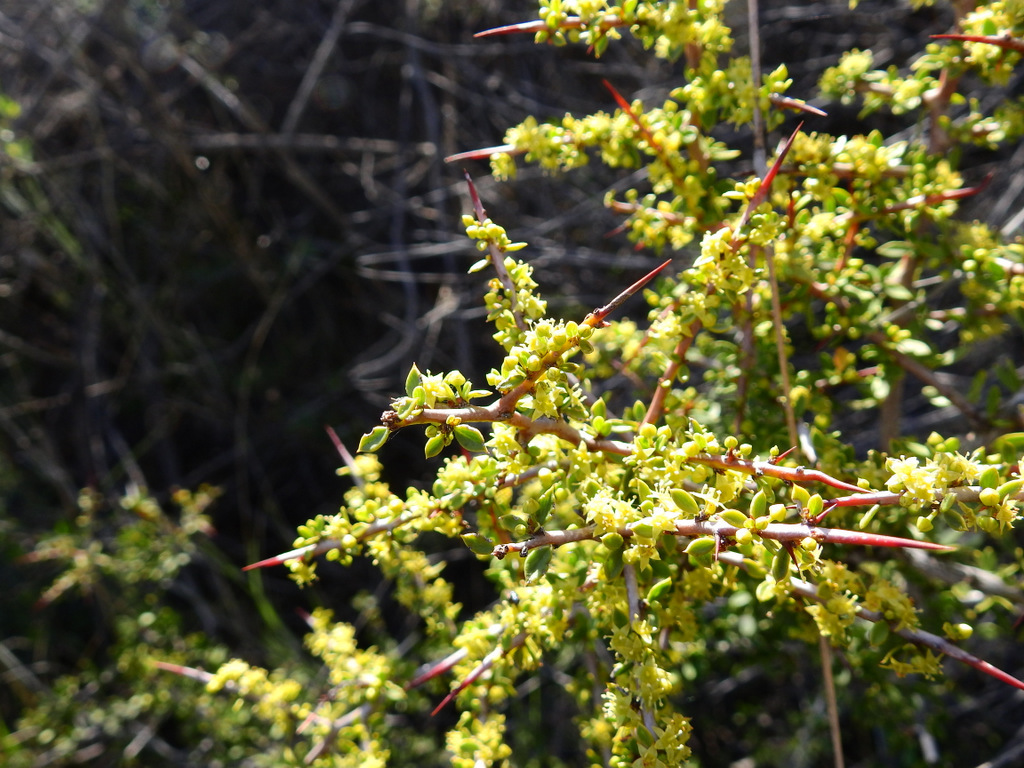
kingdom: Plantae
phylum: Tracheophyta
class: Magnoliopsida
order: Rosales
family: Rhamnaceae
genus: Condalia
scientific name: Condalia microphylla
